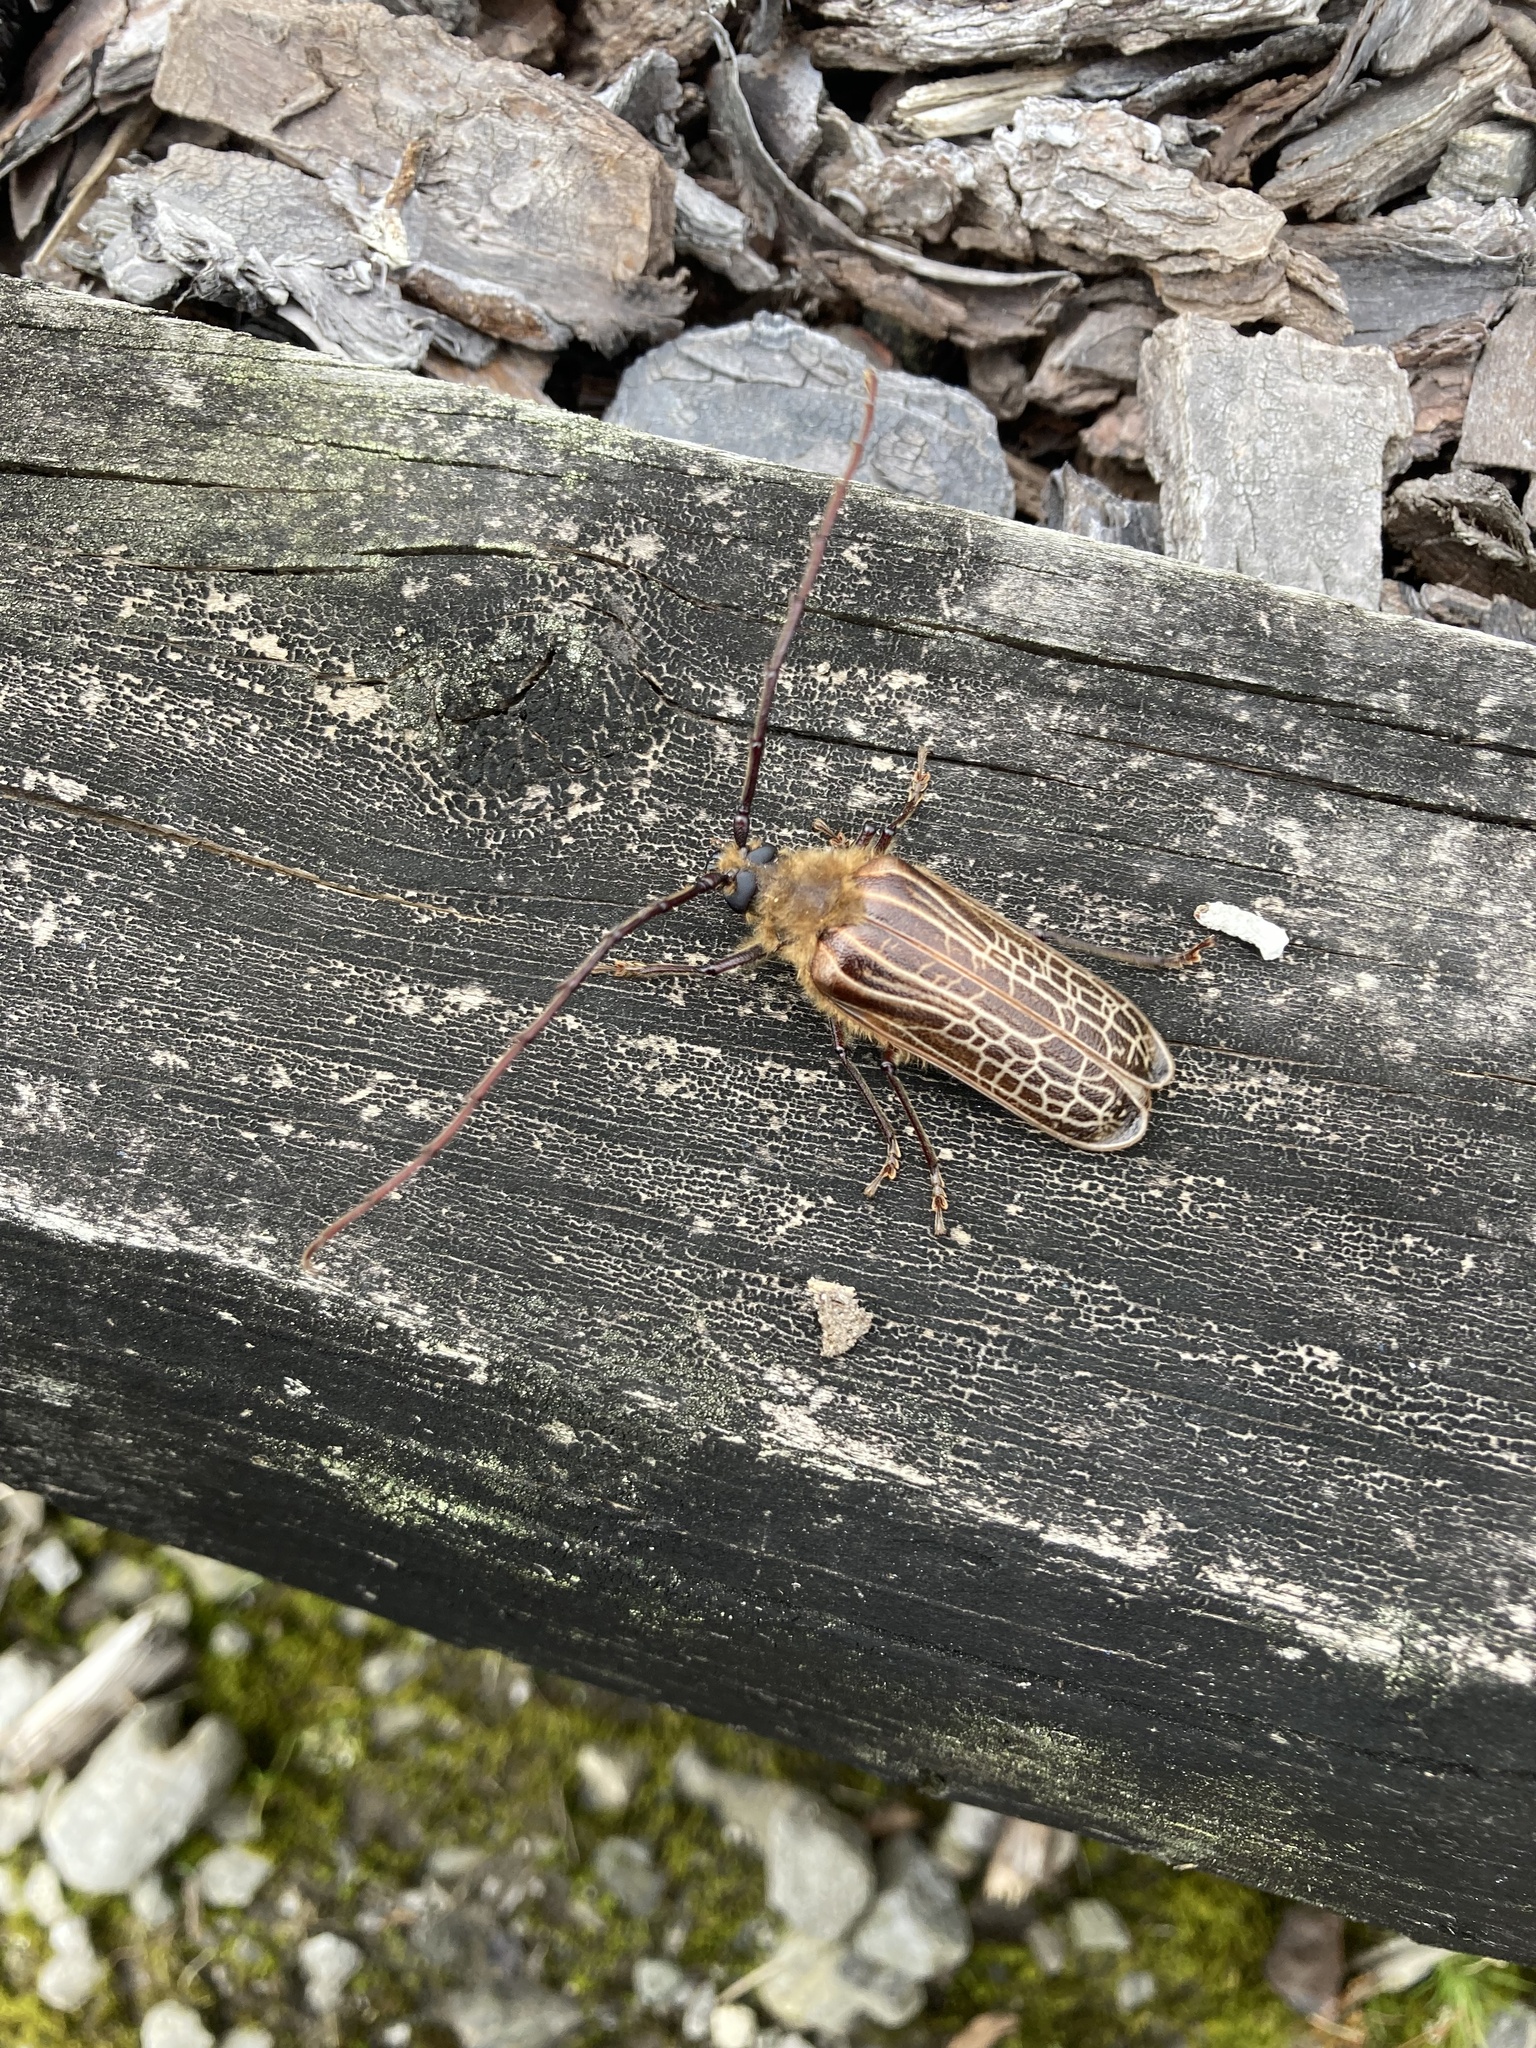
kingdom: Animalia
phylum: Arthropoda
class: Insecta
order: Coleoptera
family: Cerambycidae
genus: Prionoplus
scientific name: Prionoplus reticularis
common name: Huhu beetle
